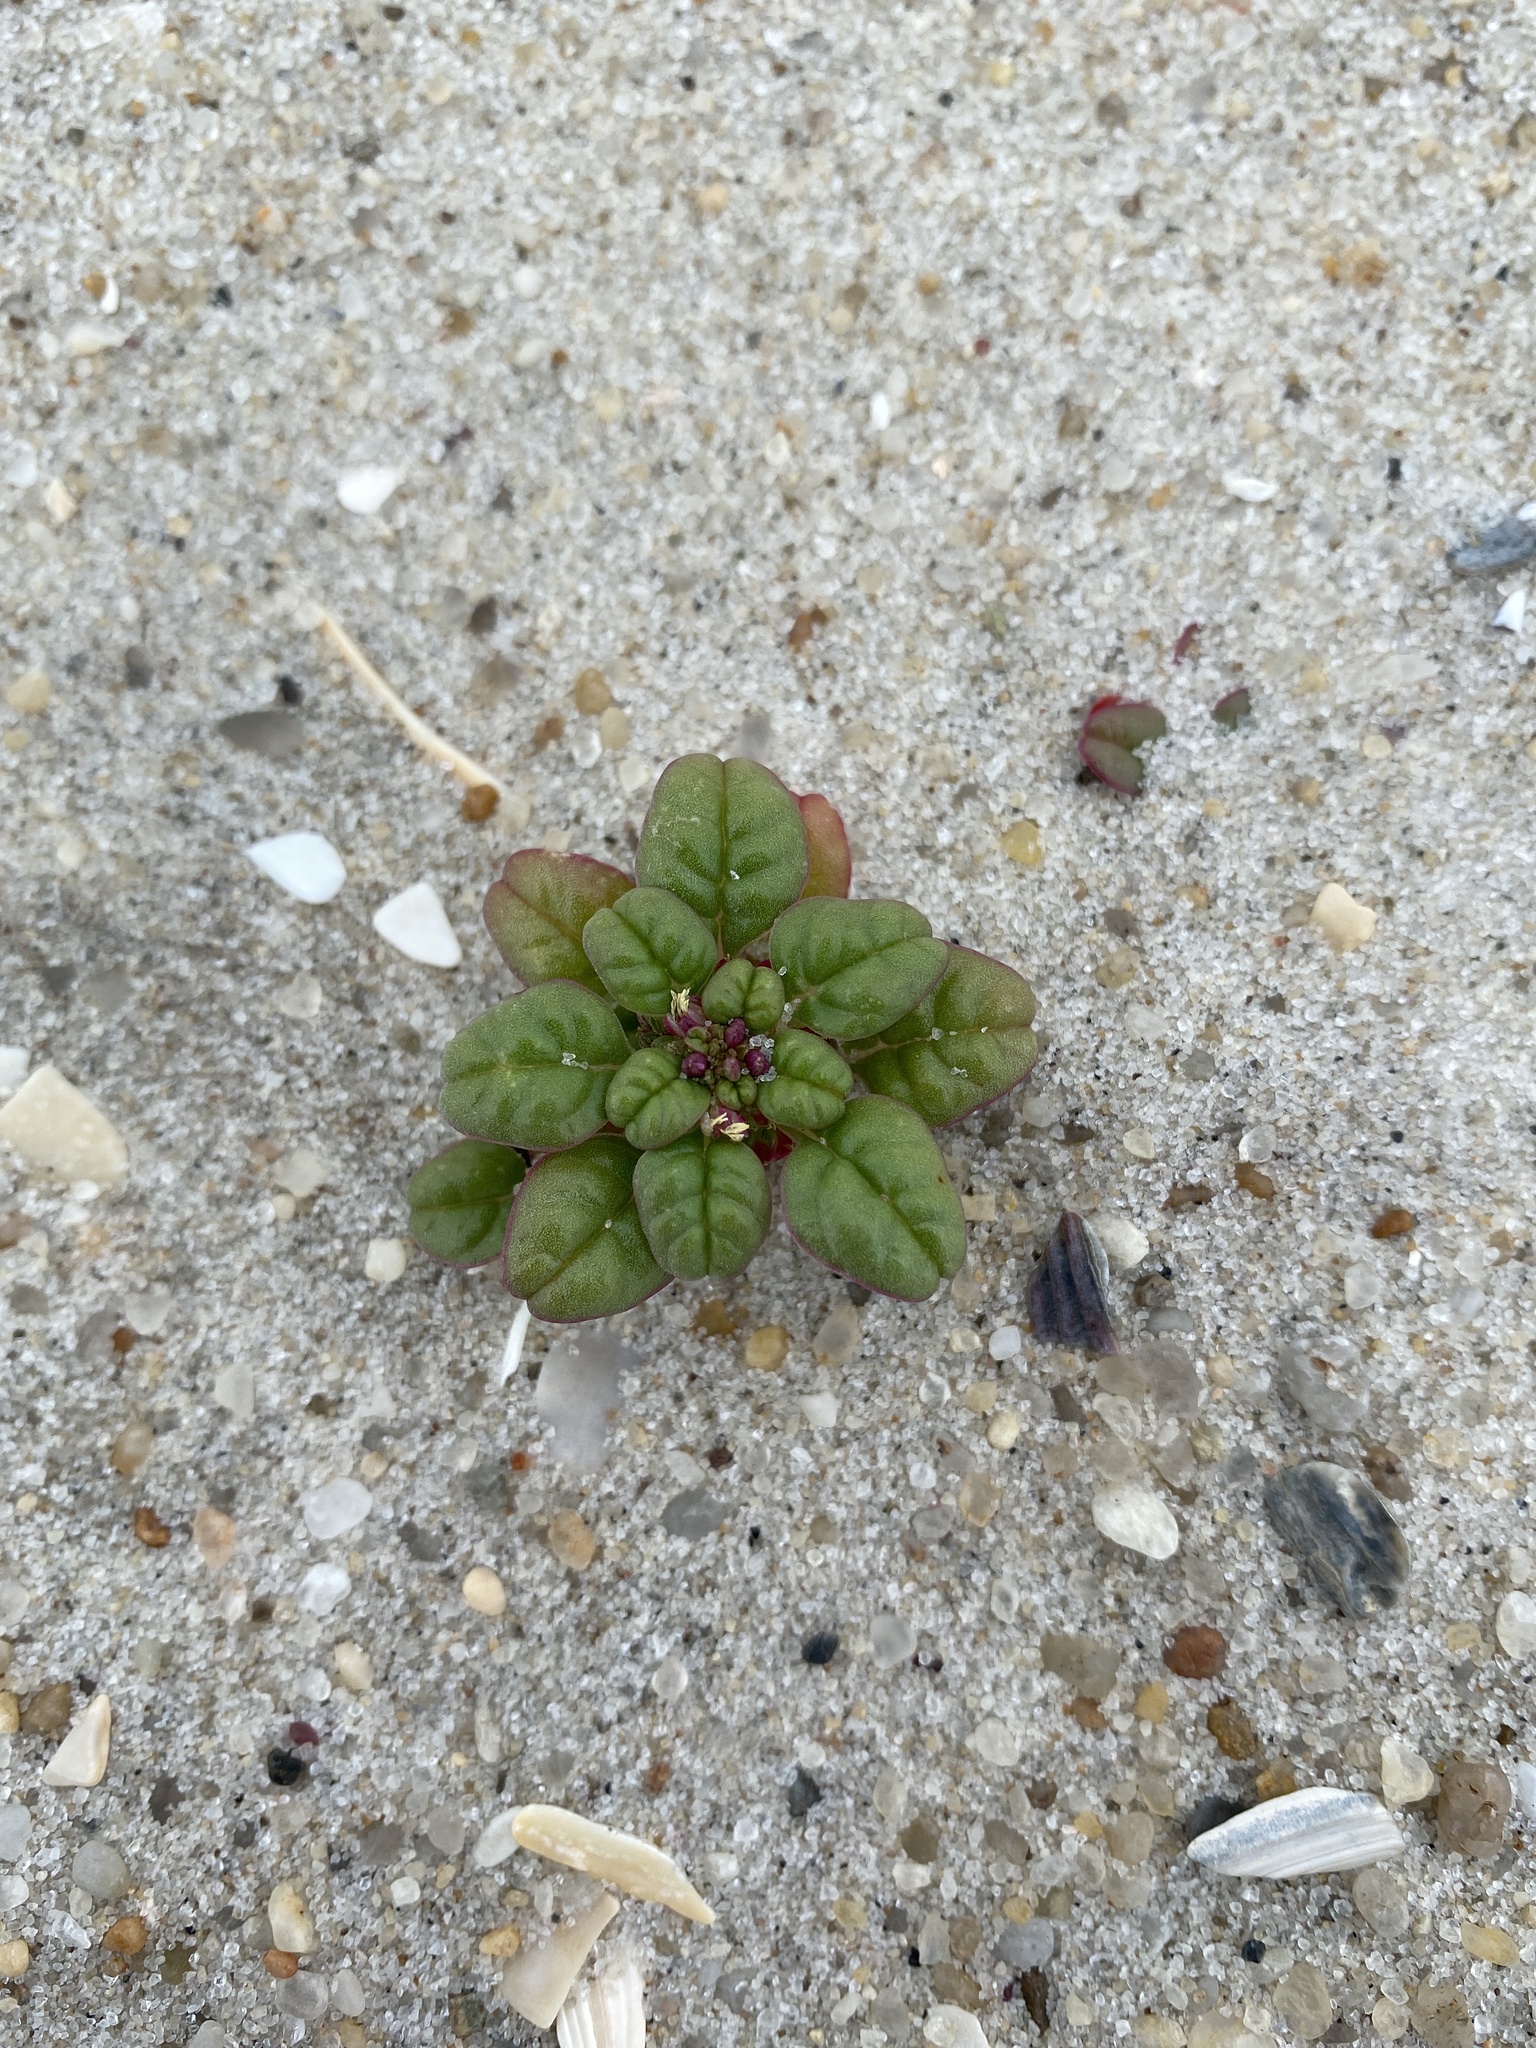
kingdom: Plantae
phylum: Tracheophyta
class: Magnoliopsida
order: Caryophyllales
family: Amaranthaceae
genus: Amaranthus
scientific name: Amaranthus pumilus
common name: Coast amaranth
